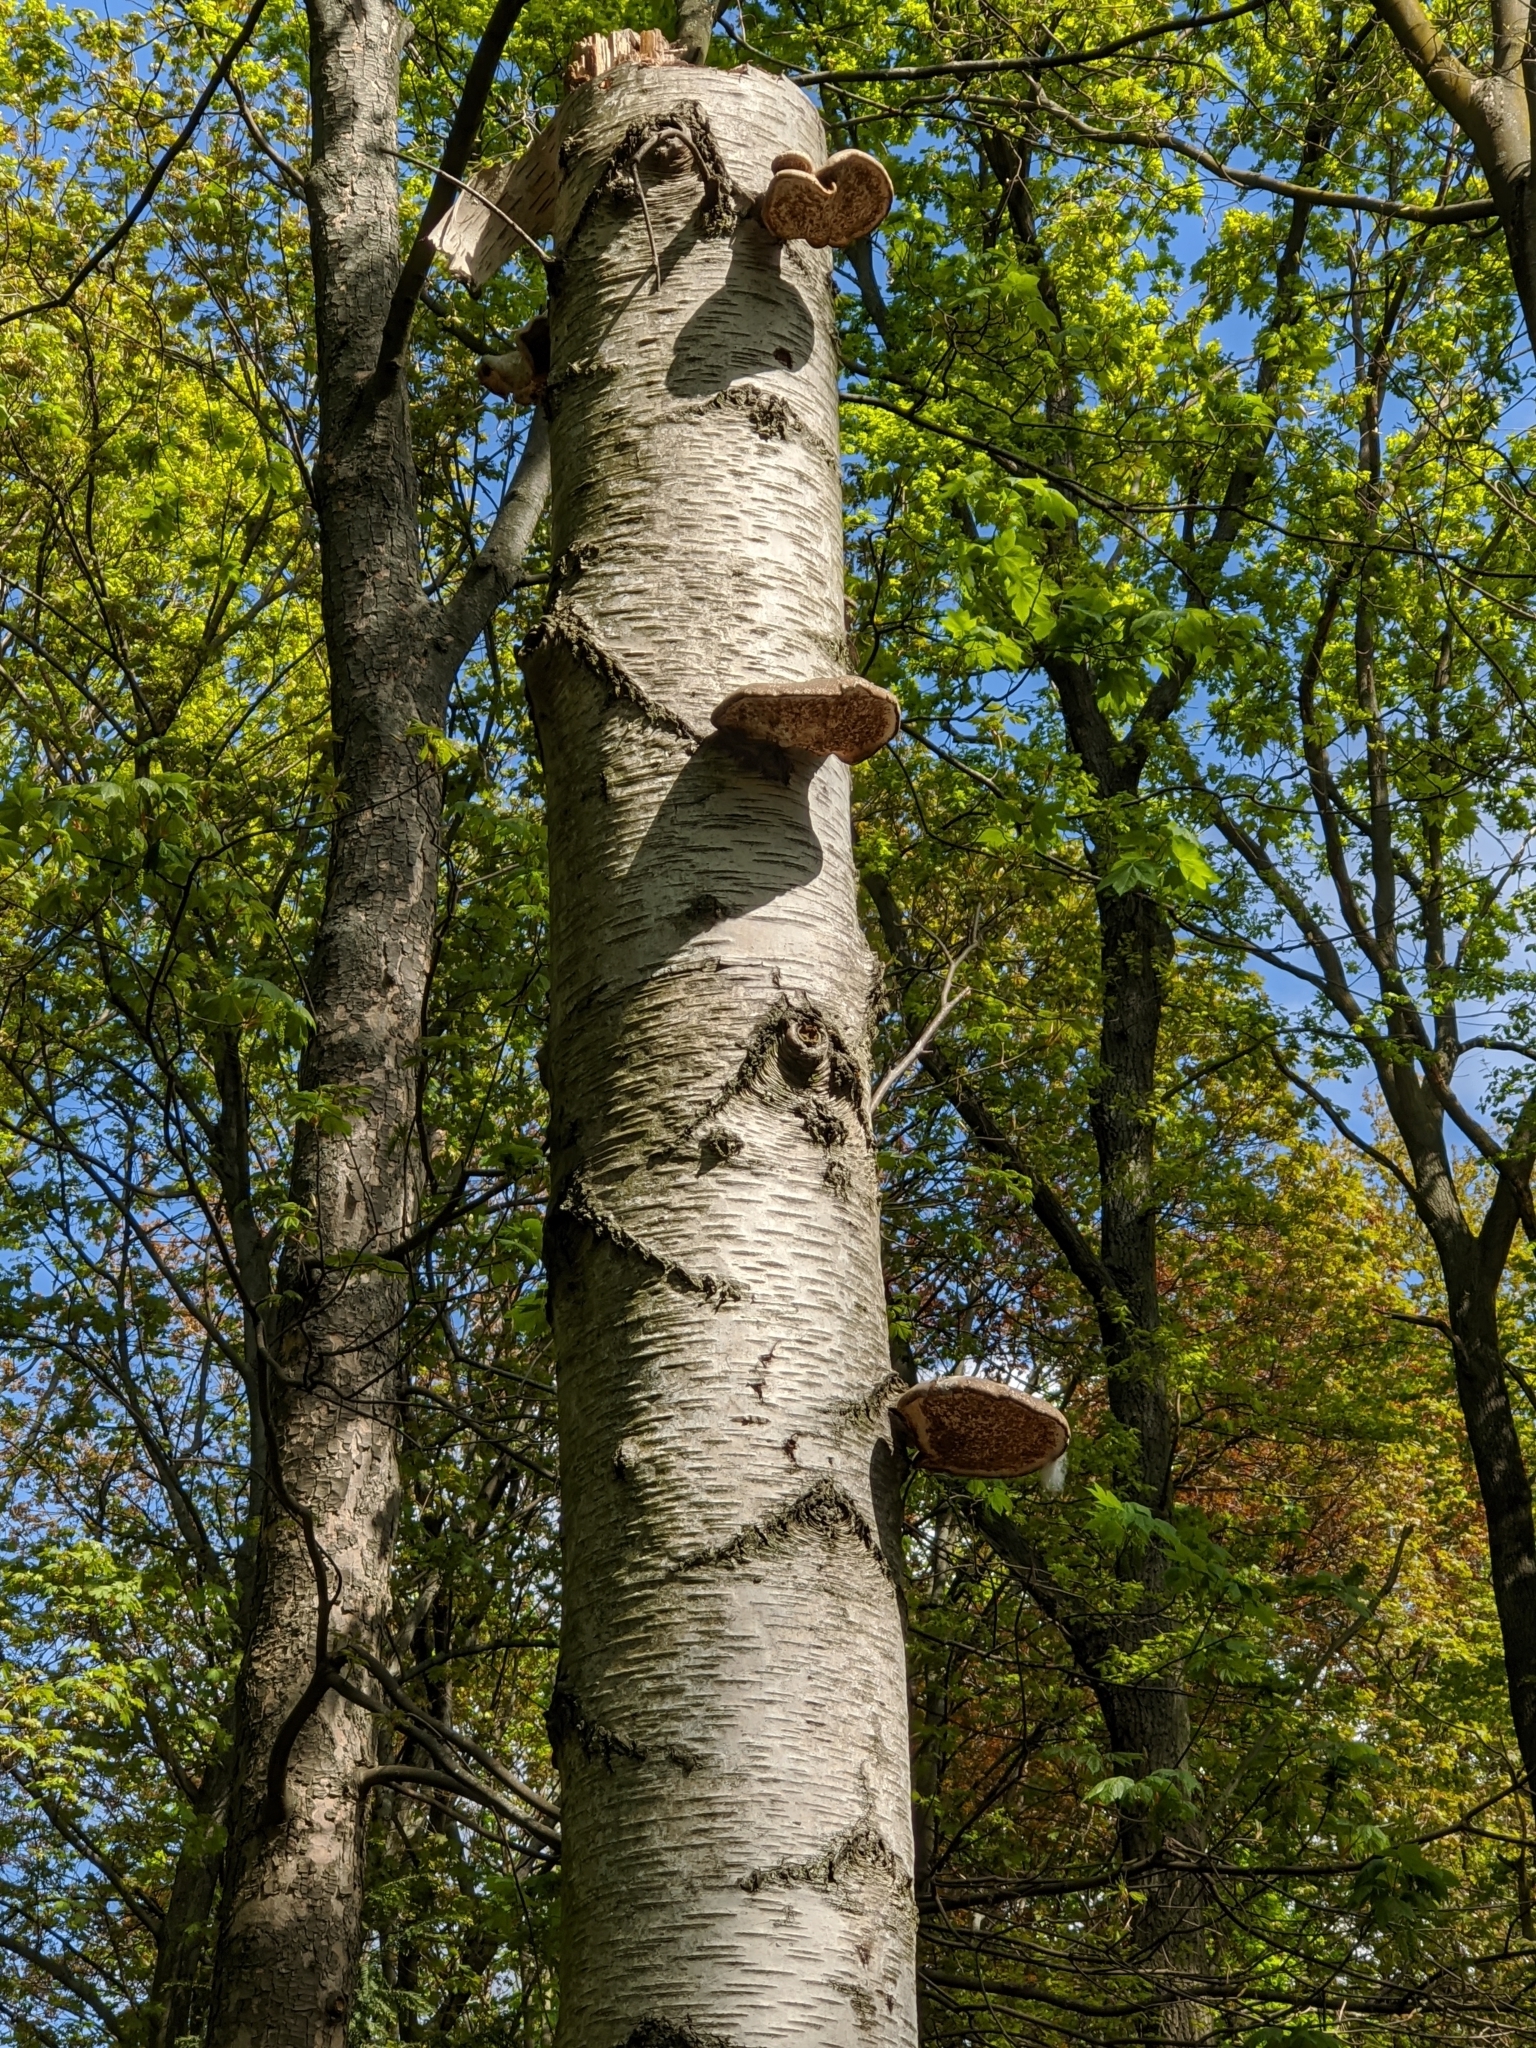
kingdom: Fungi
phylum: Basidiomycota
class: Agaricomycetes
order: Polyporales
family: Fomitopsidaceae
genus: Fomitopsis
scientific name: Fomitopsis betulina
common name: Birch polypore
